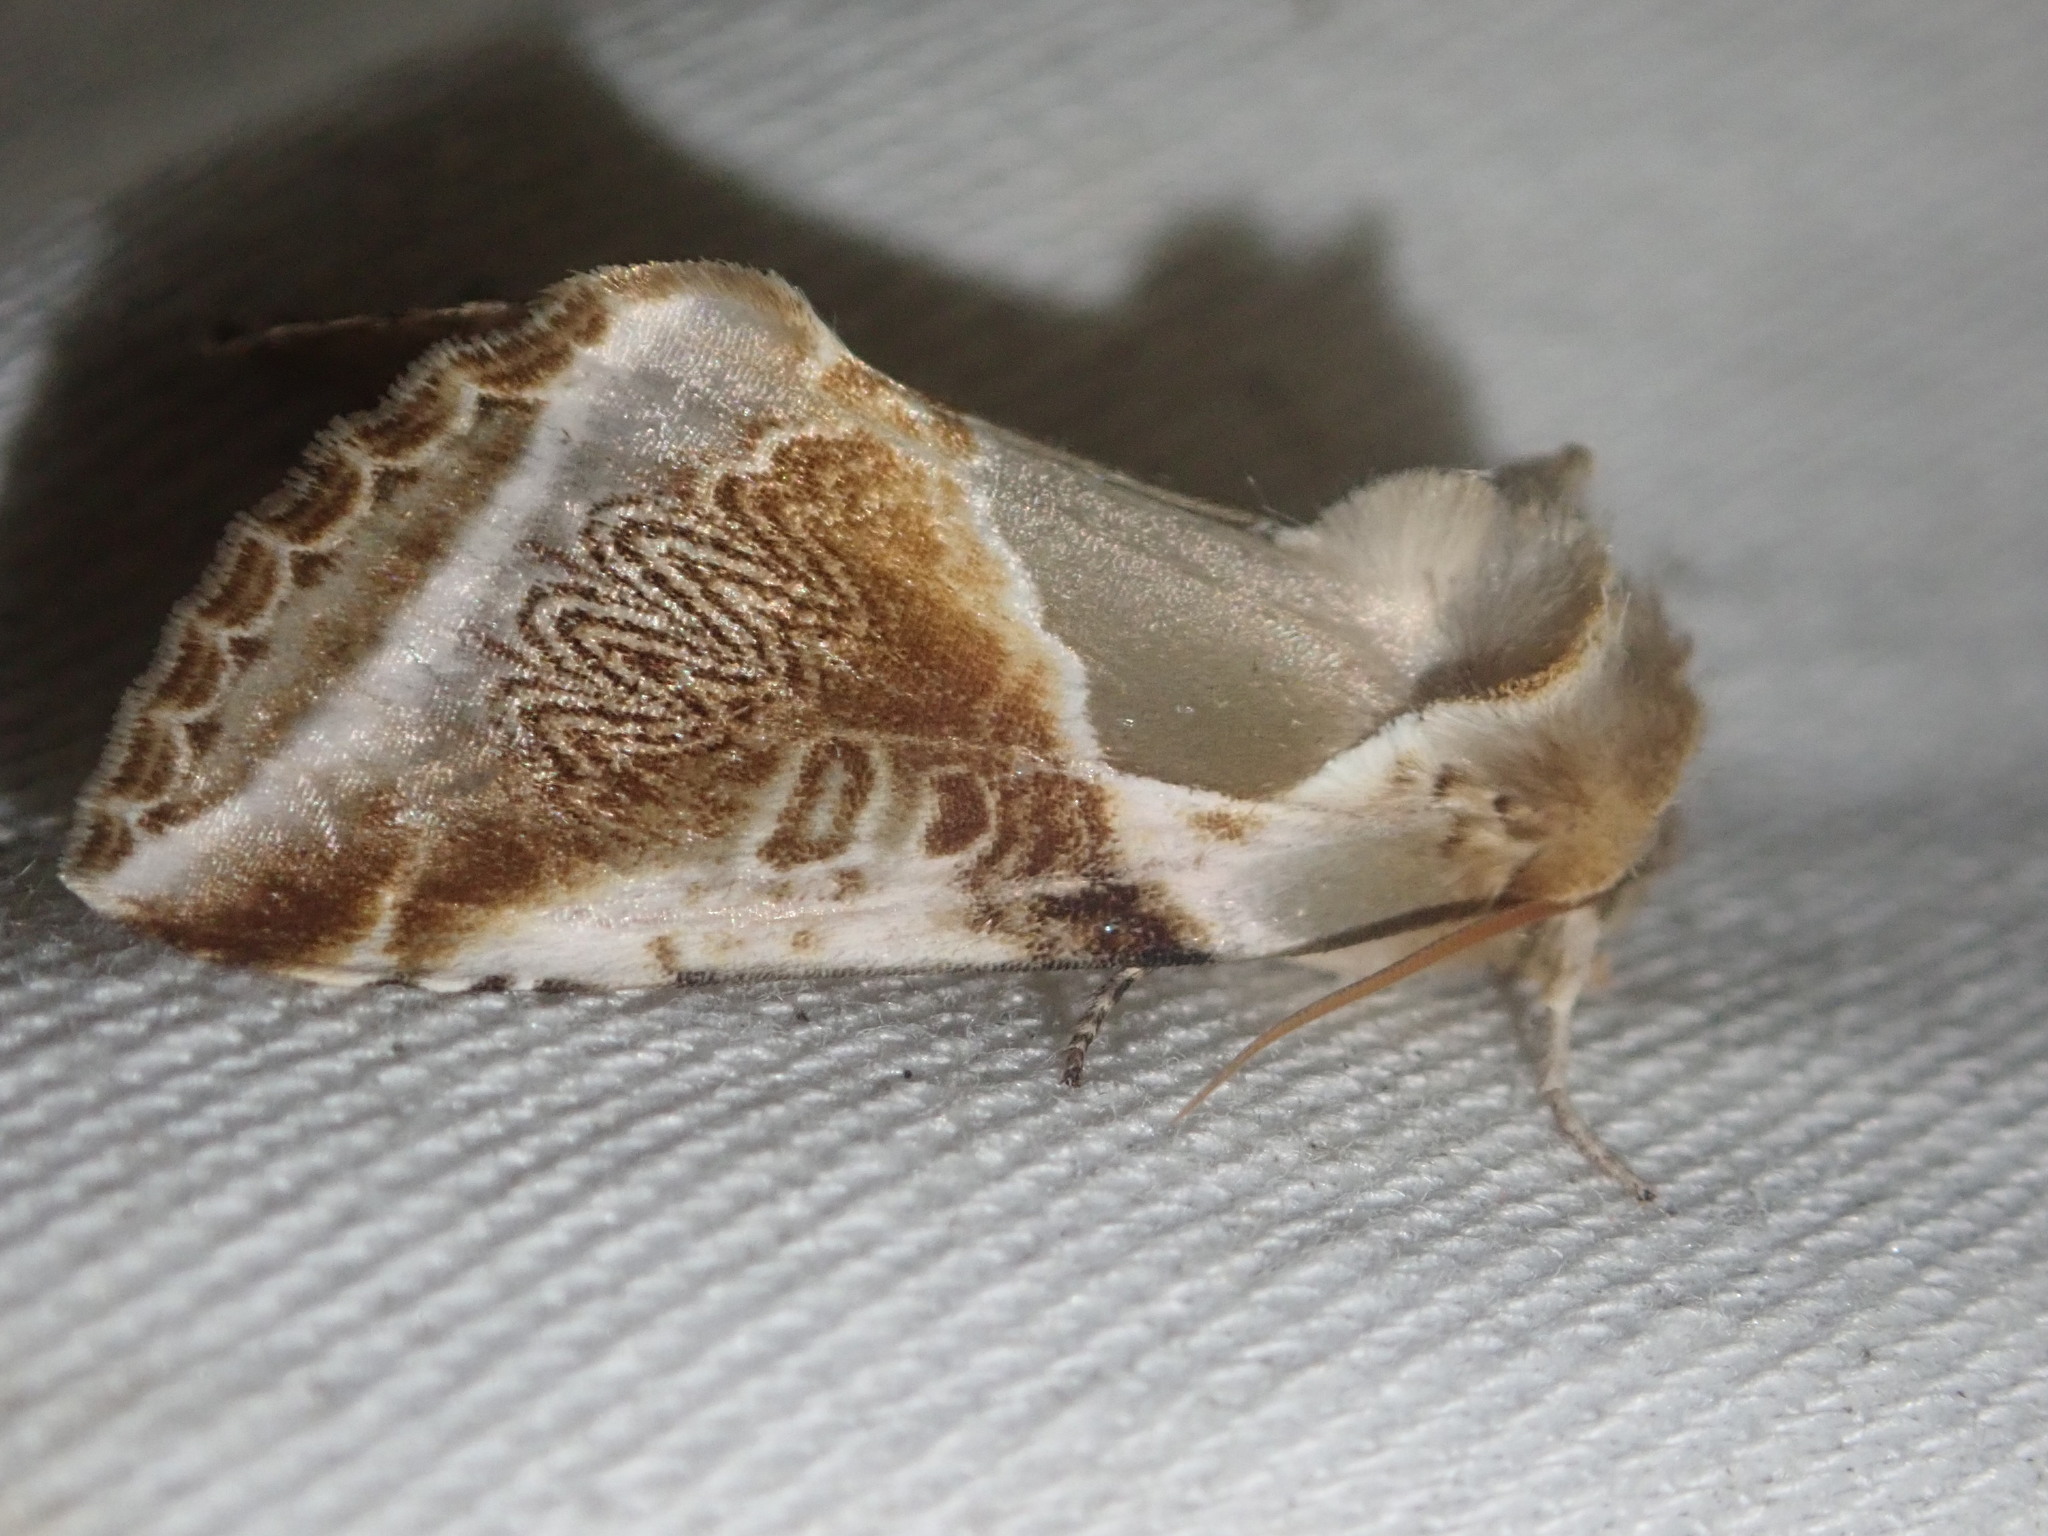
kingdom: Animalia
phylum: Arthropoda
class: Insecta
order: Lepidoptera
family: Drepanidae
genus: Habrosyne
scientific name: Habrosyne pyritoides
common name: Buff arches
